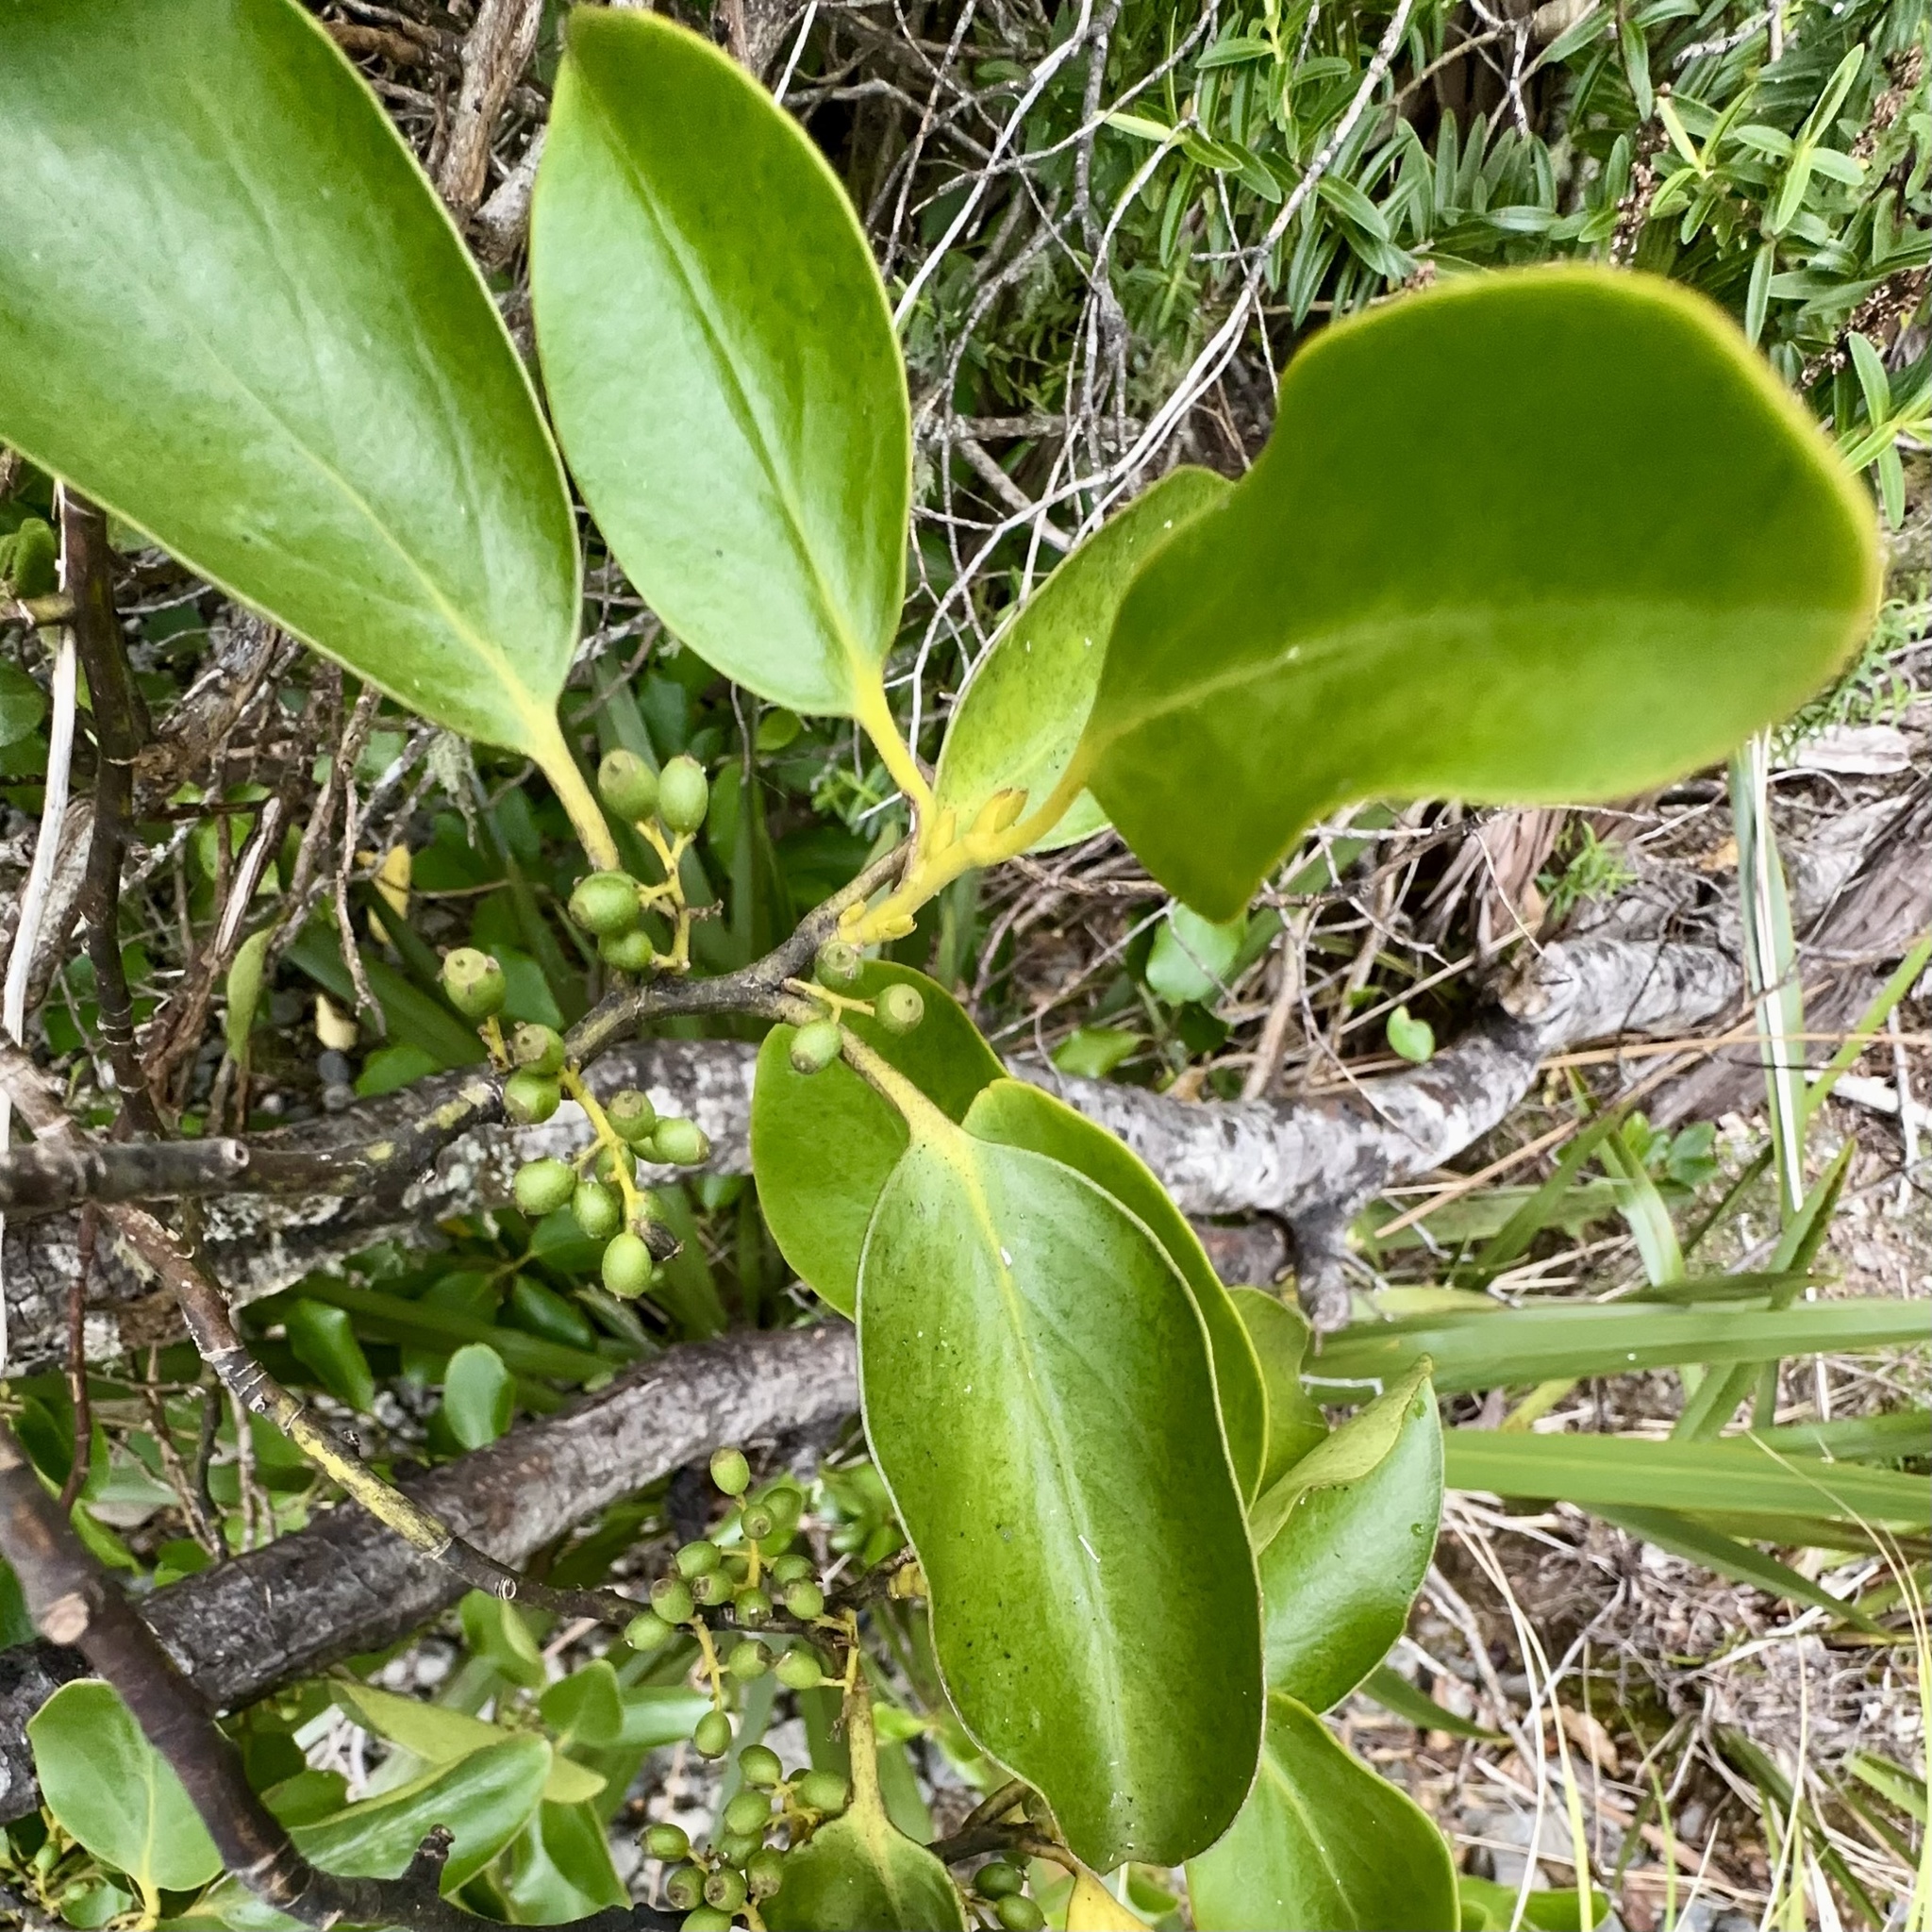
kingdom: Plantae
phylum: Tracheophyta
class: Magnoliopsida
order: Apiales
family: Griseliniaceae
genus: Griselinia
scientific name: Griselinia littoralis
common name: New zealand broadleaf
